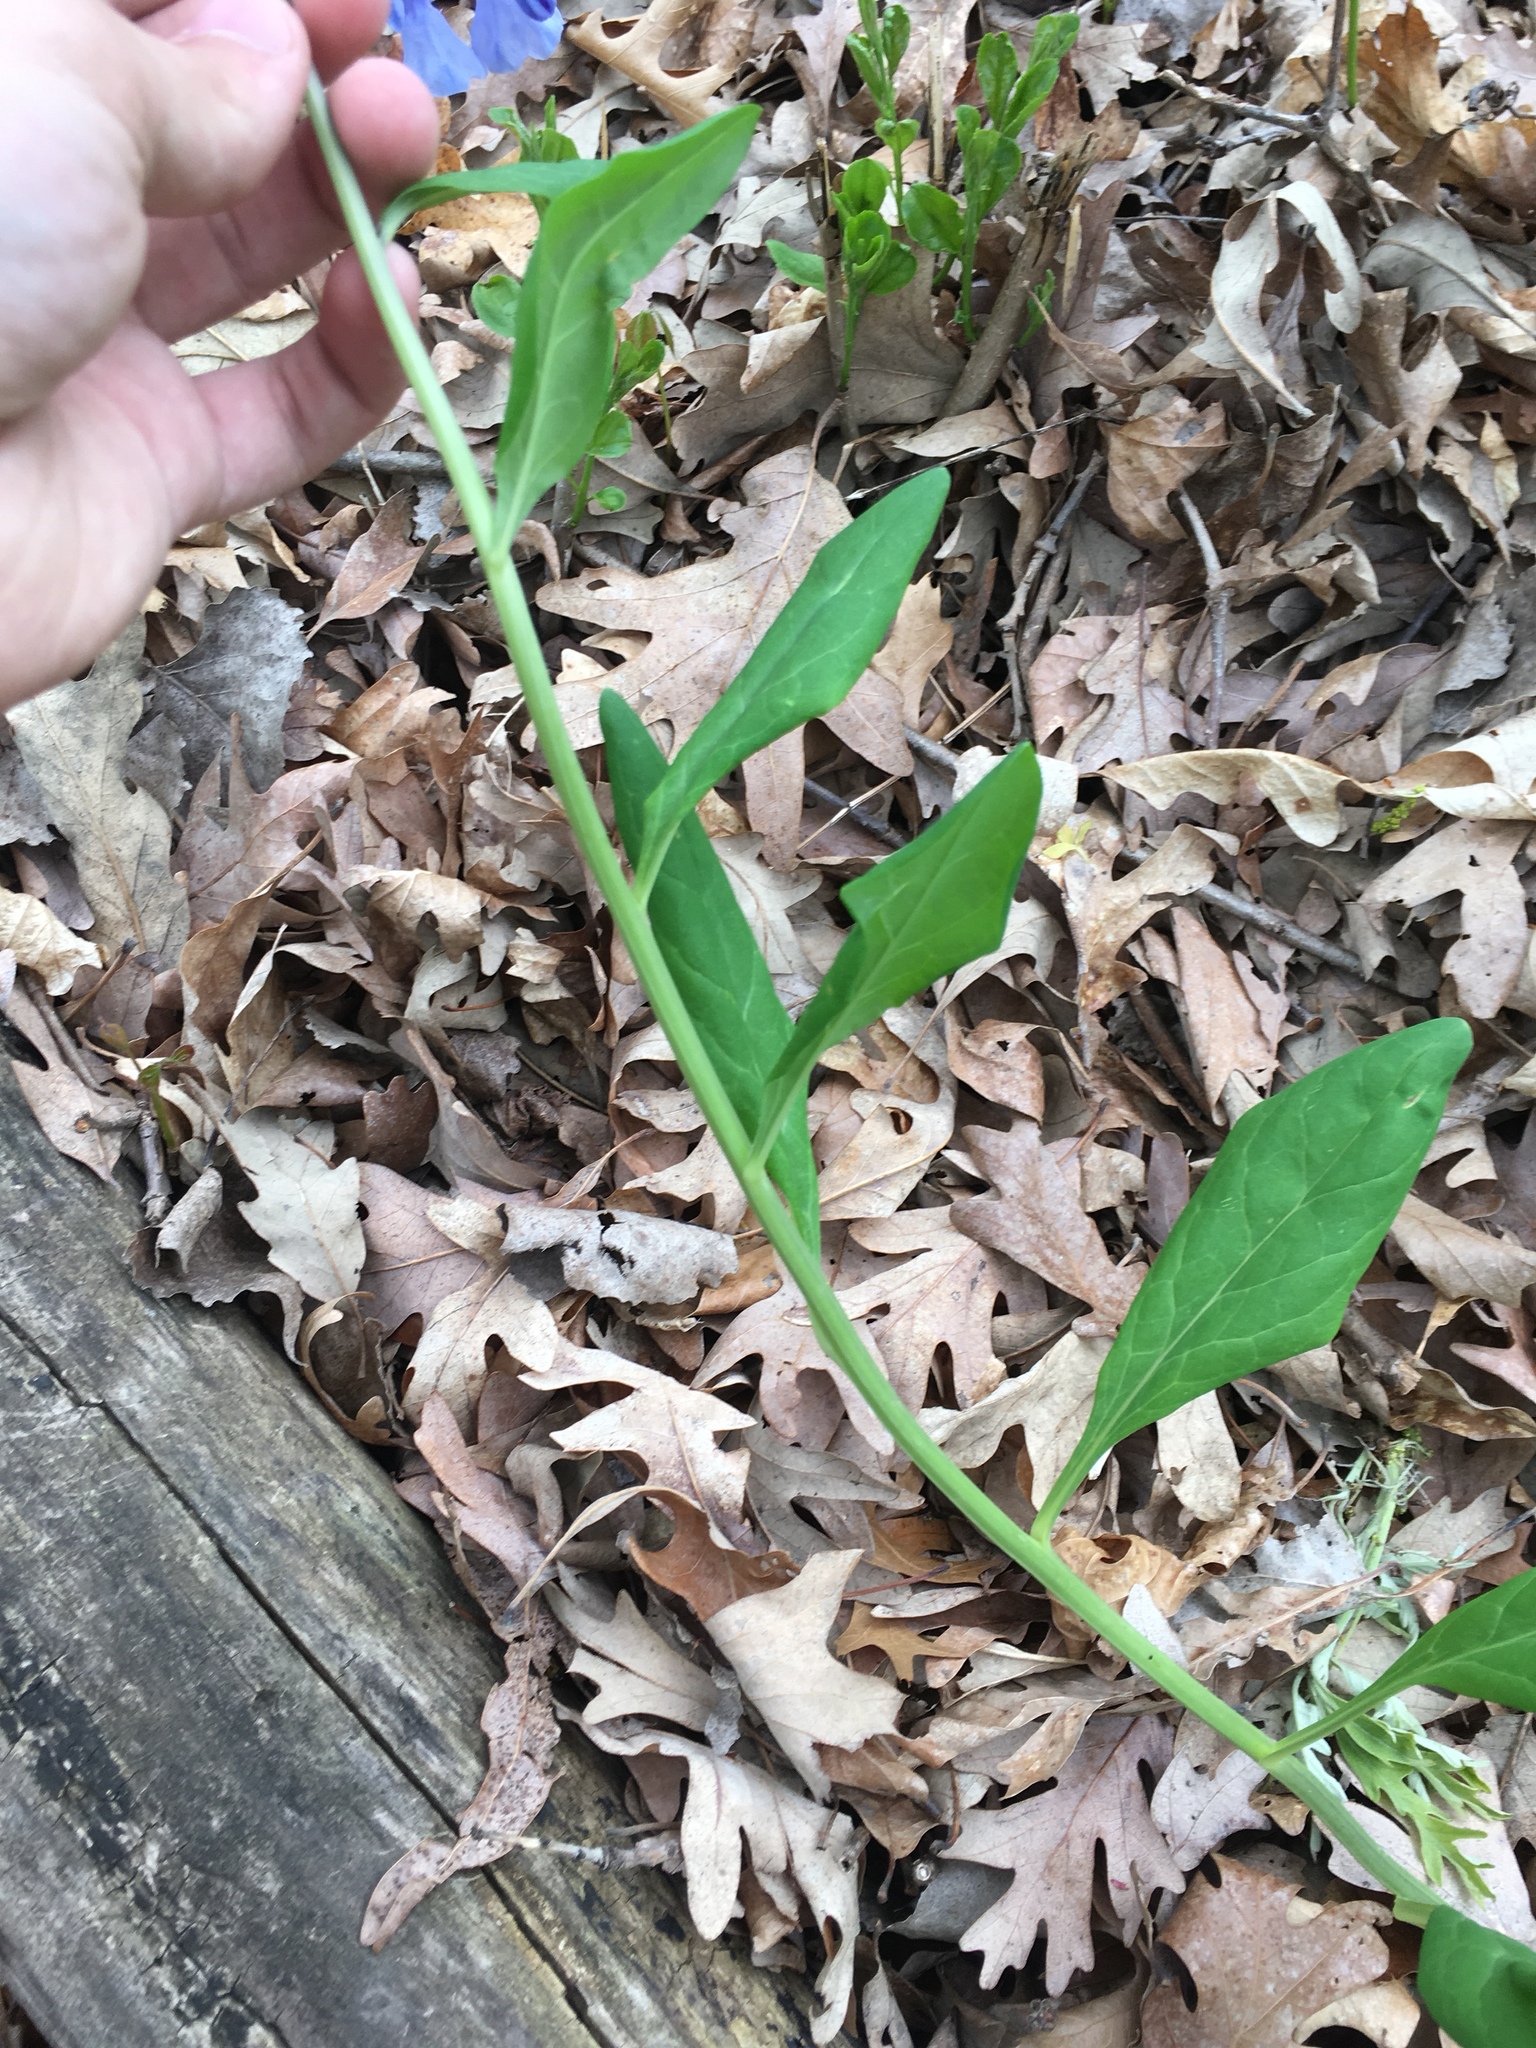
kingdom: Plantae
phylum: Tracheophyta
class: Magnoliopsida
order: Boraginales
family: Boraginaceae
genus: Mertensia
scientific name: Mertensia virginica
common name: Virginia bluebells
